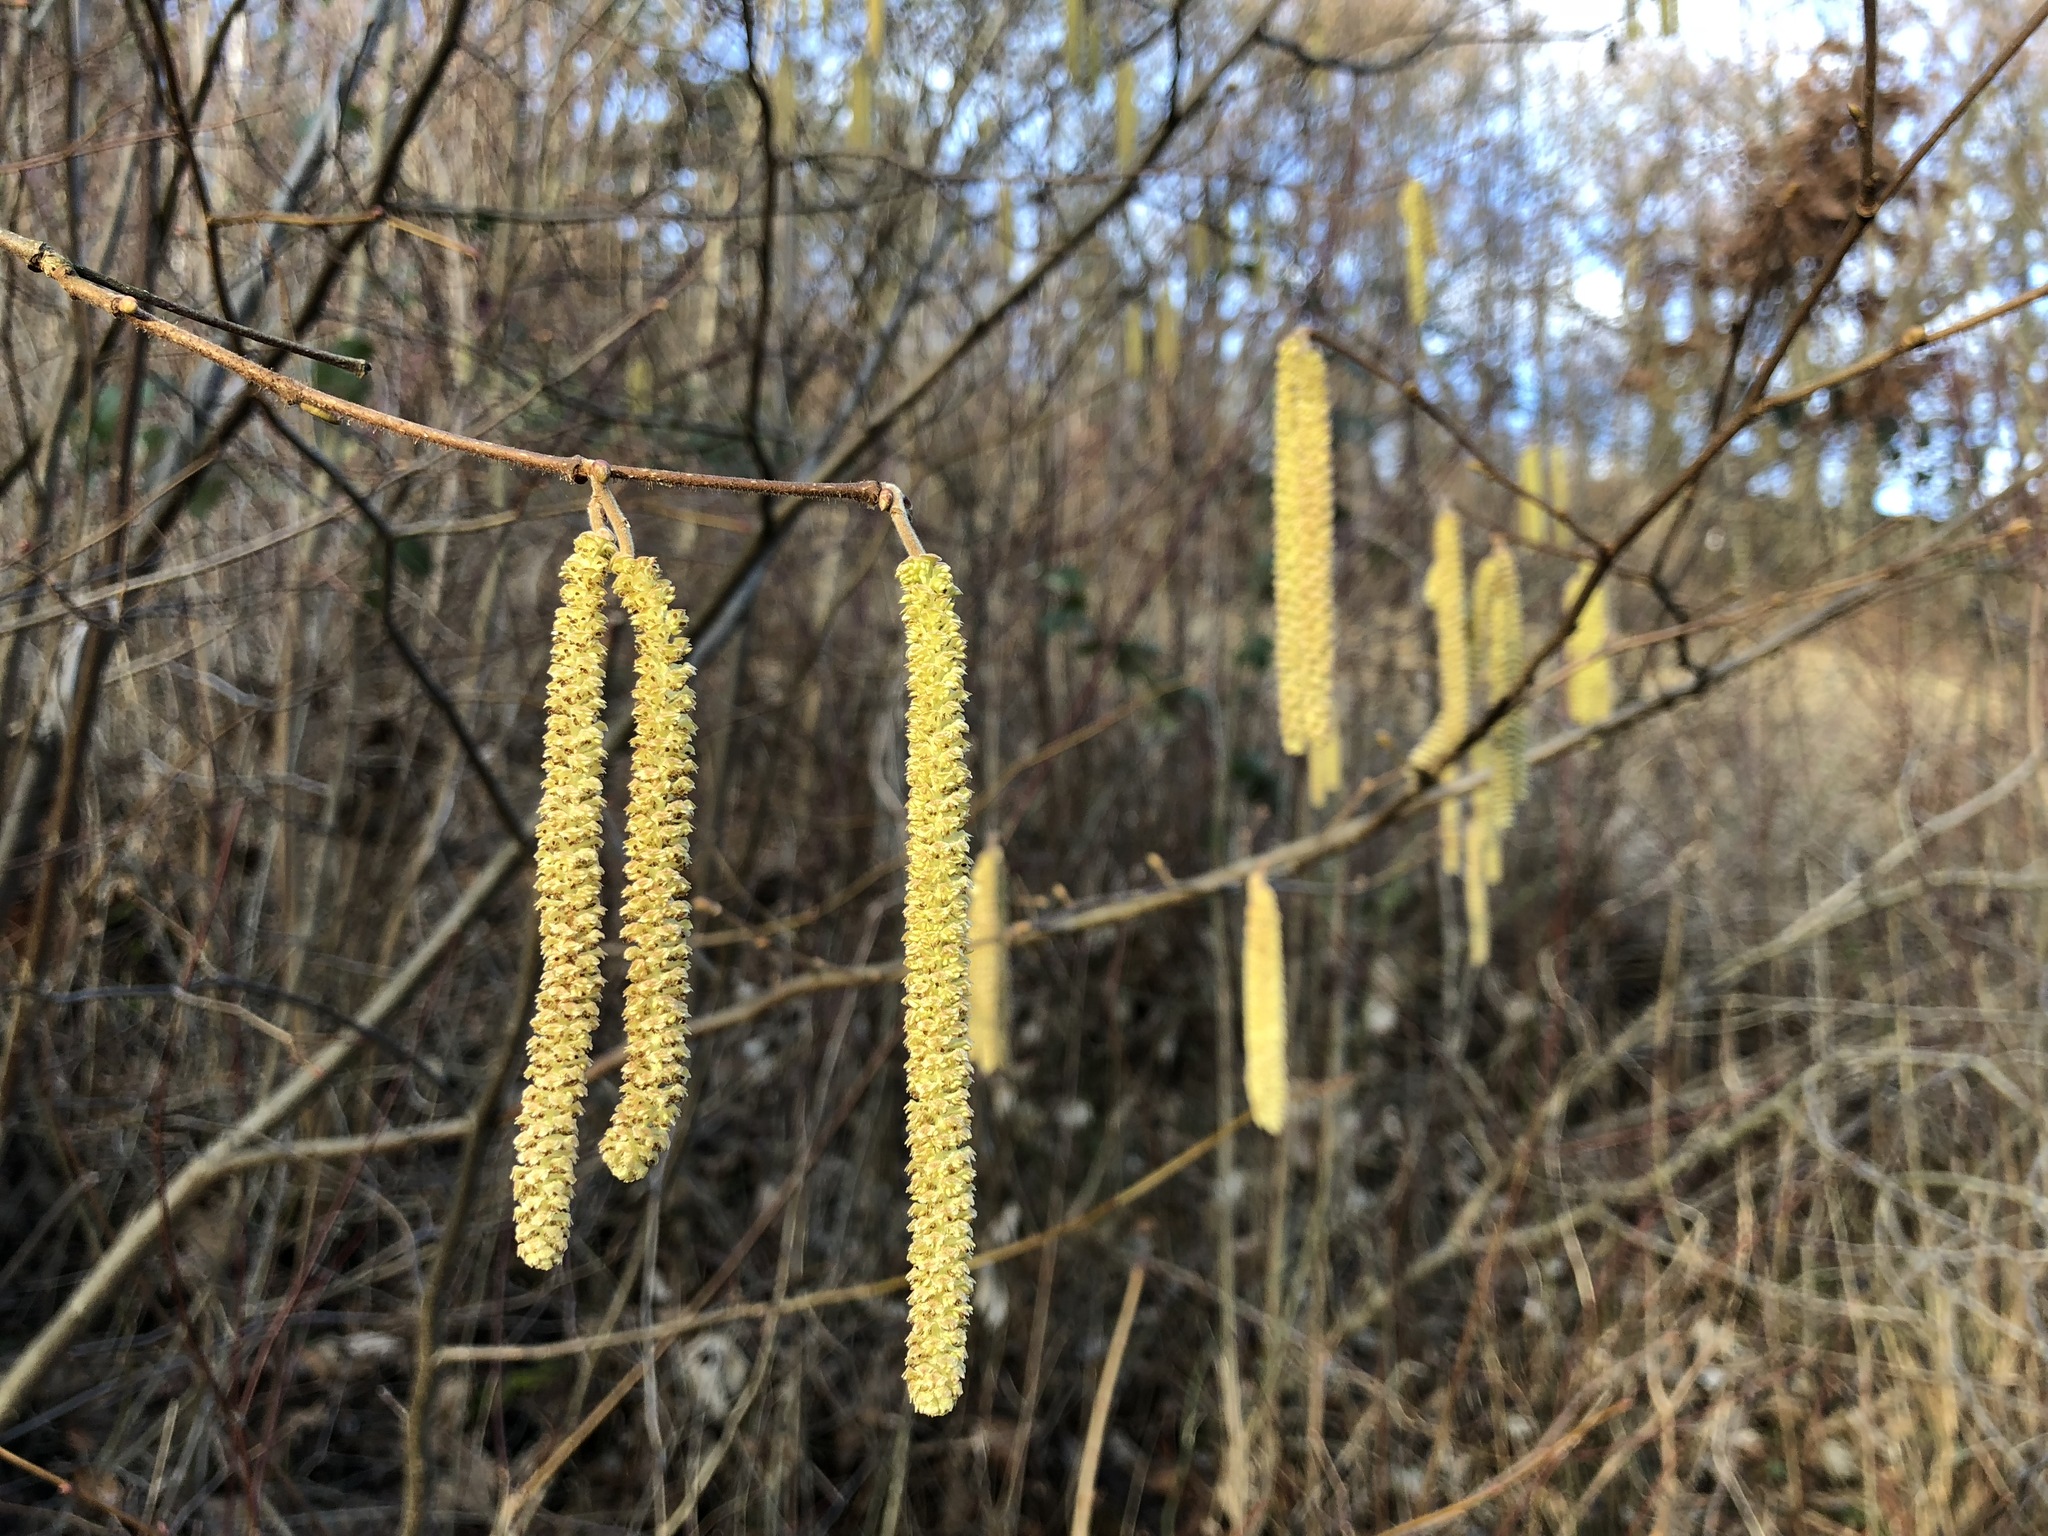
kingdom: Plantae
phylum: Tracheophyta
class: Magnoliopsida
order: Fagales
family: Betulaceae
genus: Corylus
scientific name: Corylus avellana
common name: European hazel
